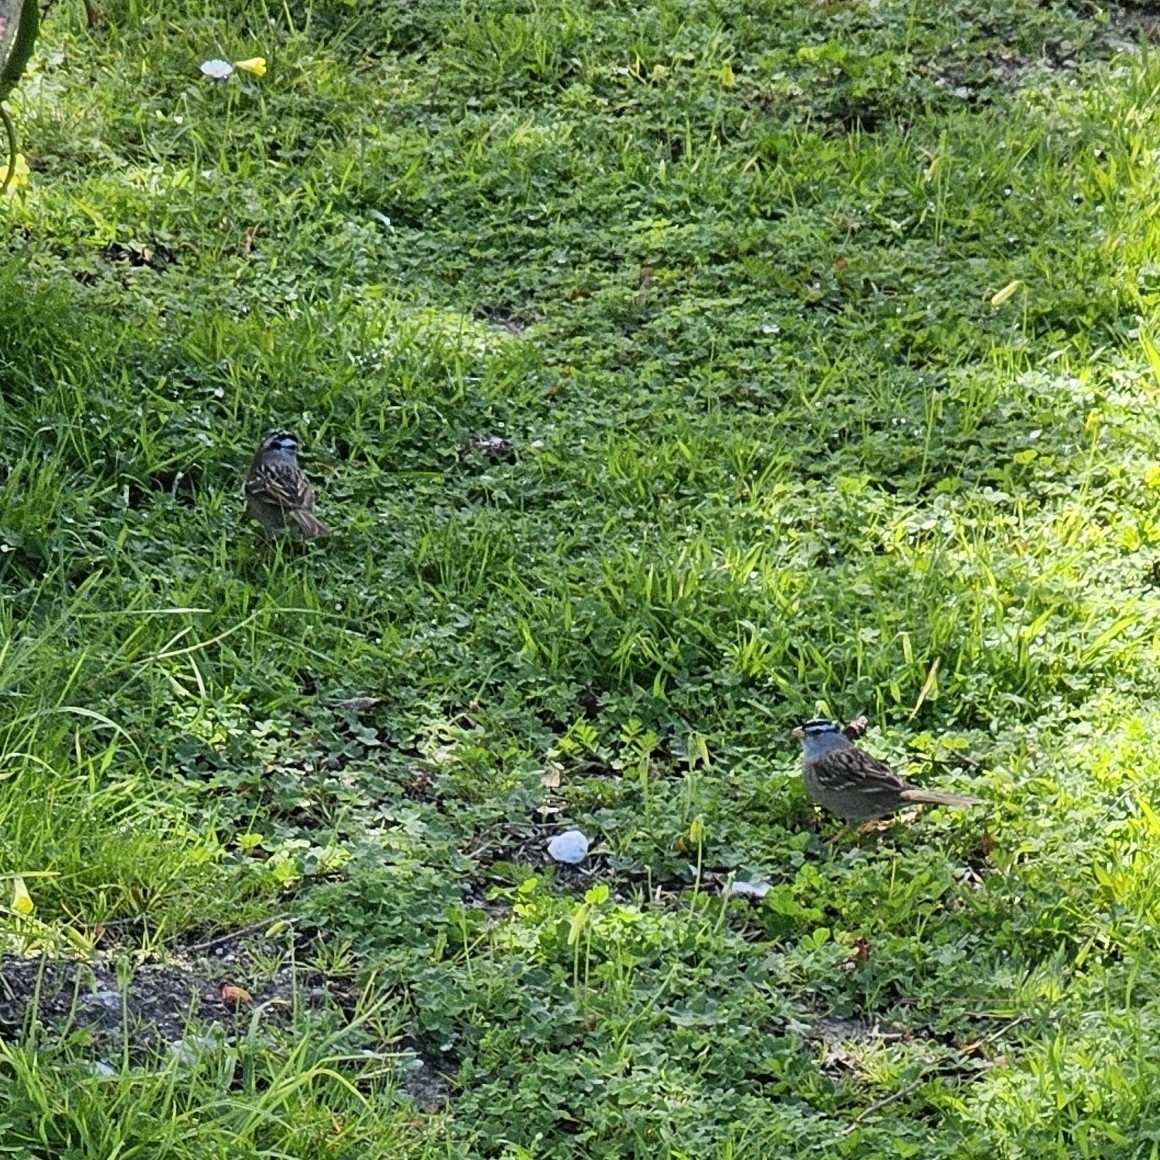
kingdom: Animalia
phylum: Chordata
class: Aves
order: Passeriformes
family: Passerellidae
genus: Zonotrichia
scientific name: Zonotrichia leucophrys
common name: White-crowned sparrow
